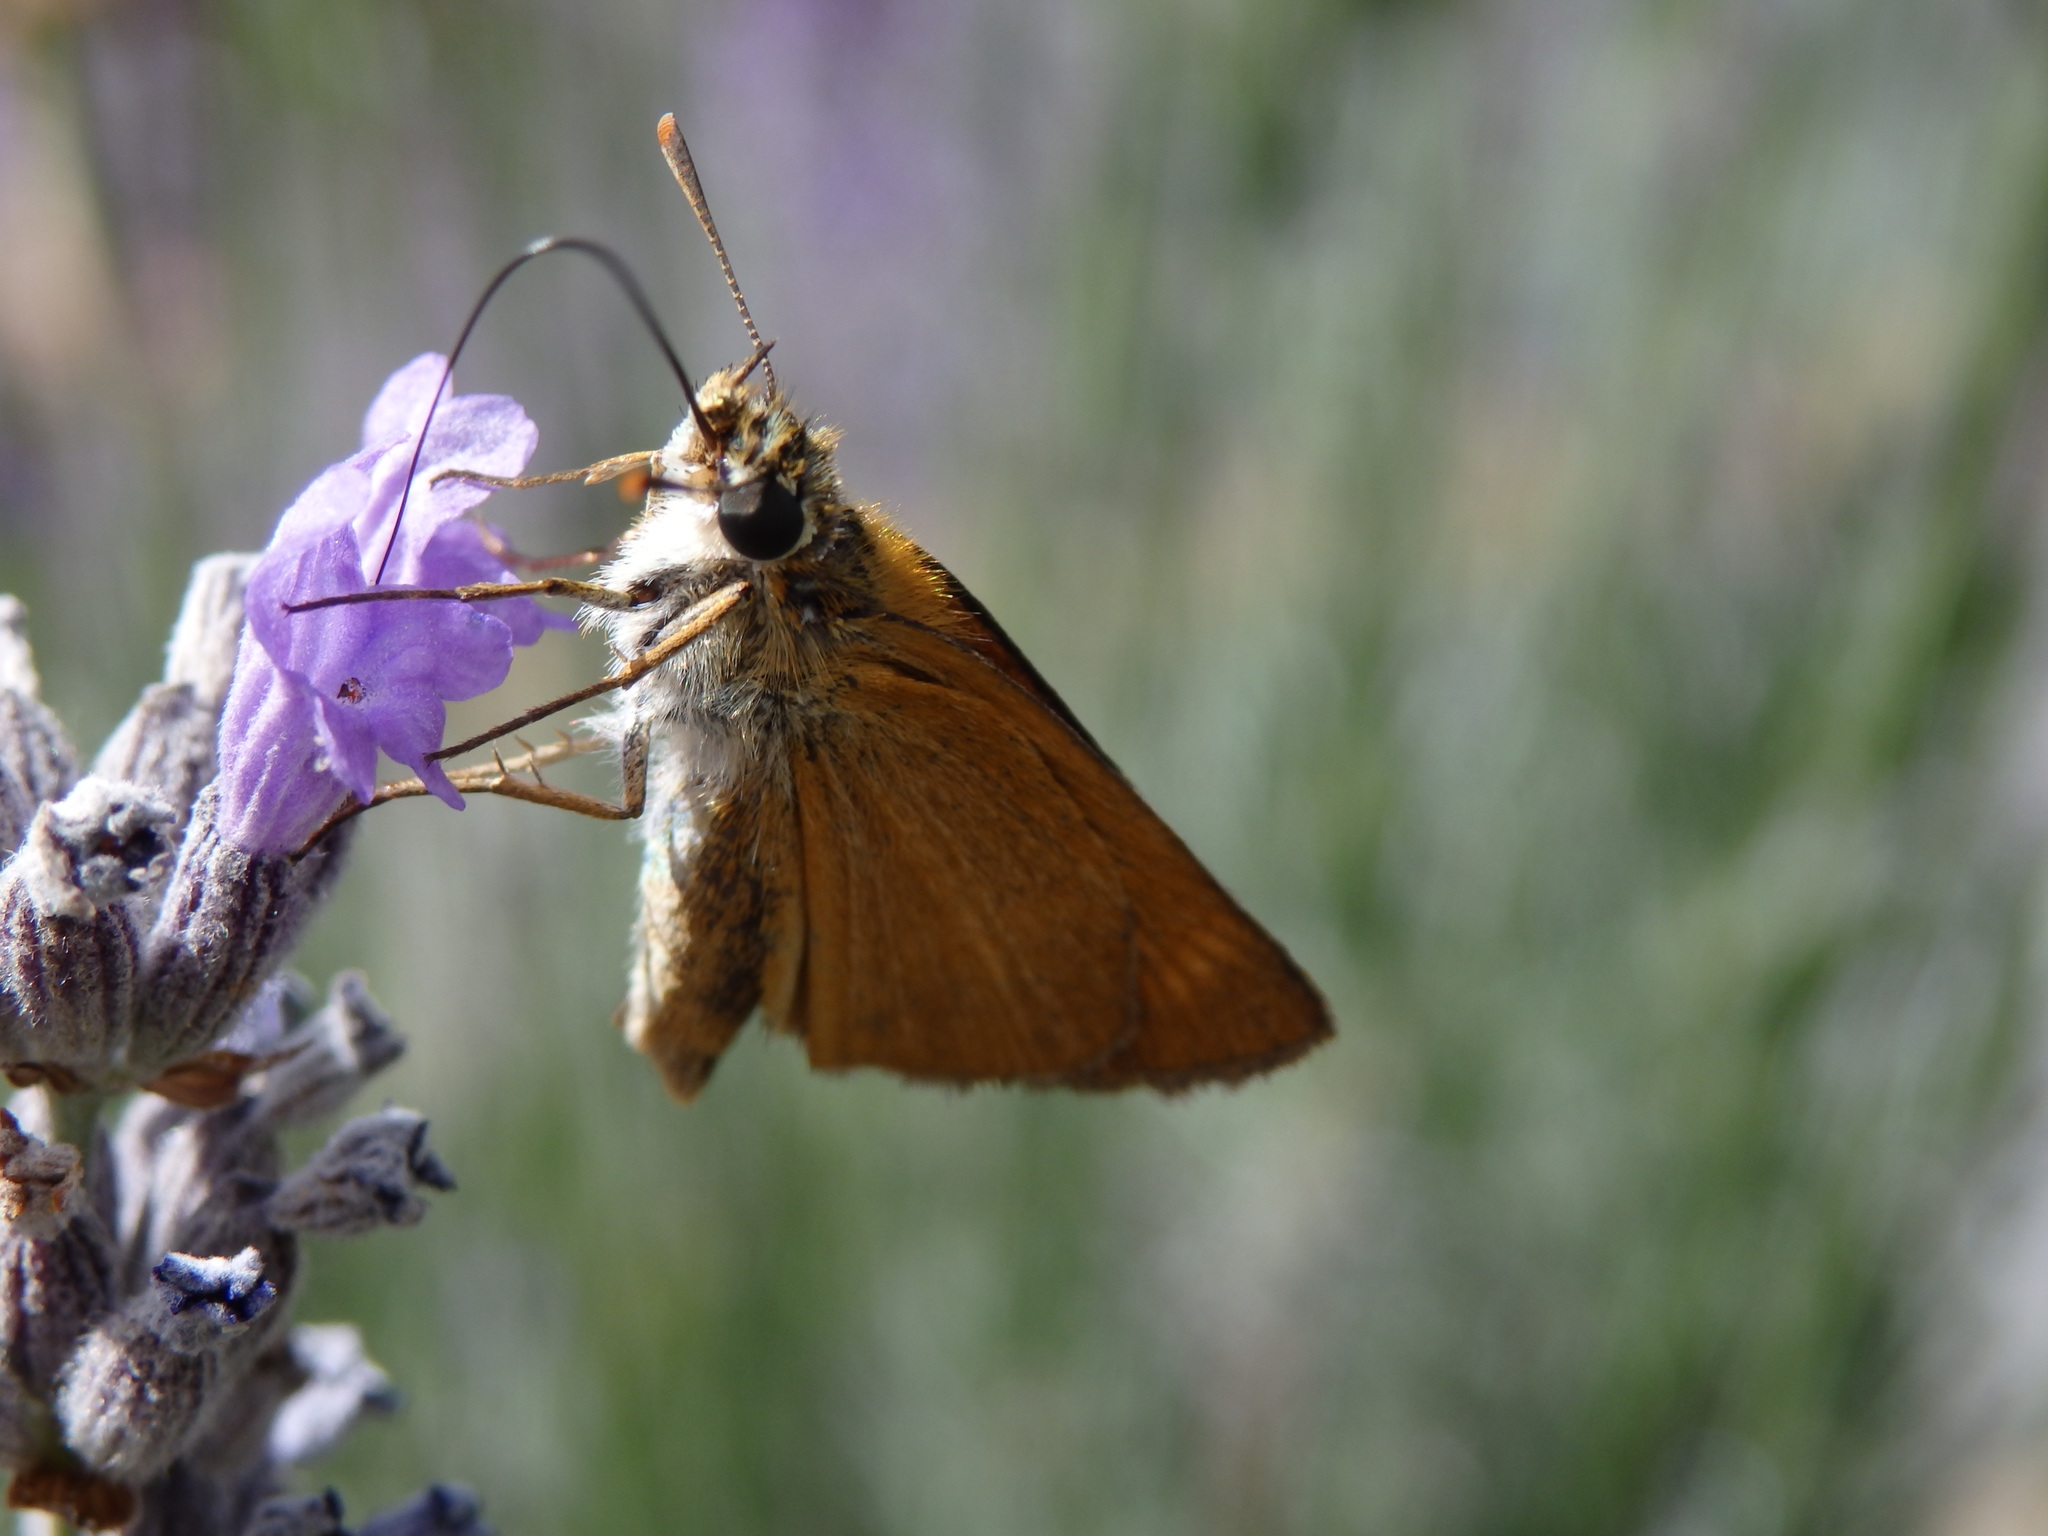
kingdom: Animalia
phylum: Arthropoda
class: Insecta
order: Lepidoptera
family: Hesperiidae
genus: Thymelicus
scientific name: Thymelicus acteon
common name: Lulworth skipper
